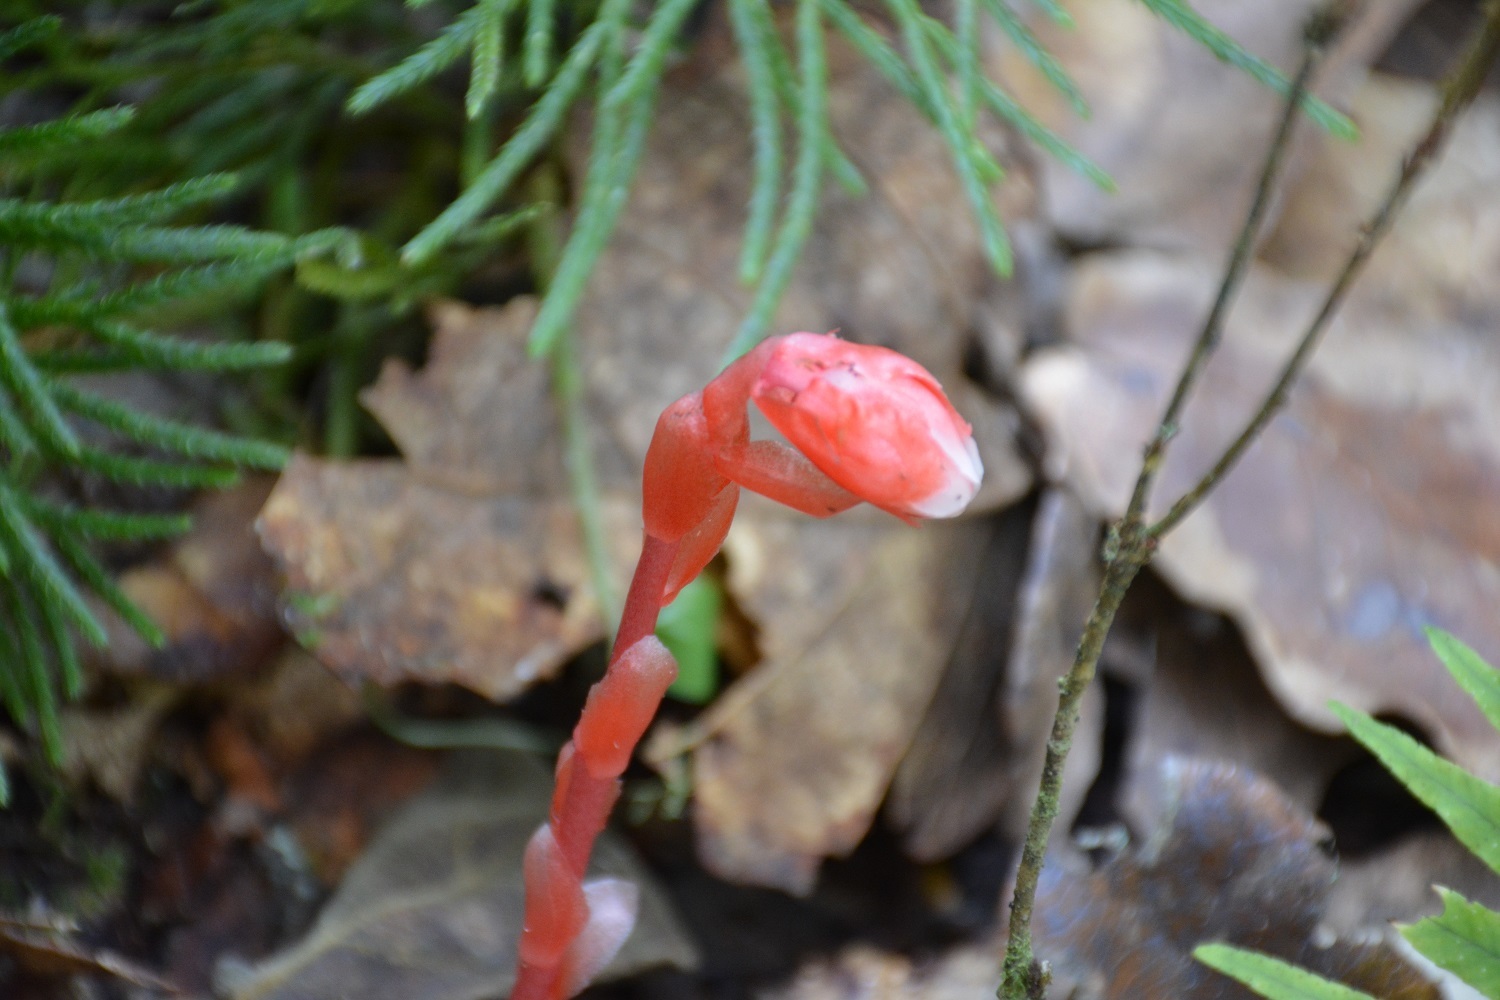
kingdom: Plantae
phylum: Tracheophyta
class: Magnoliopsida
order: Ericales
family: Ericaceae
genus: Monotropa
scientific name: Monotropa coccinea
